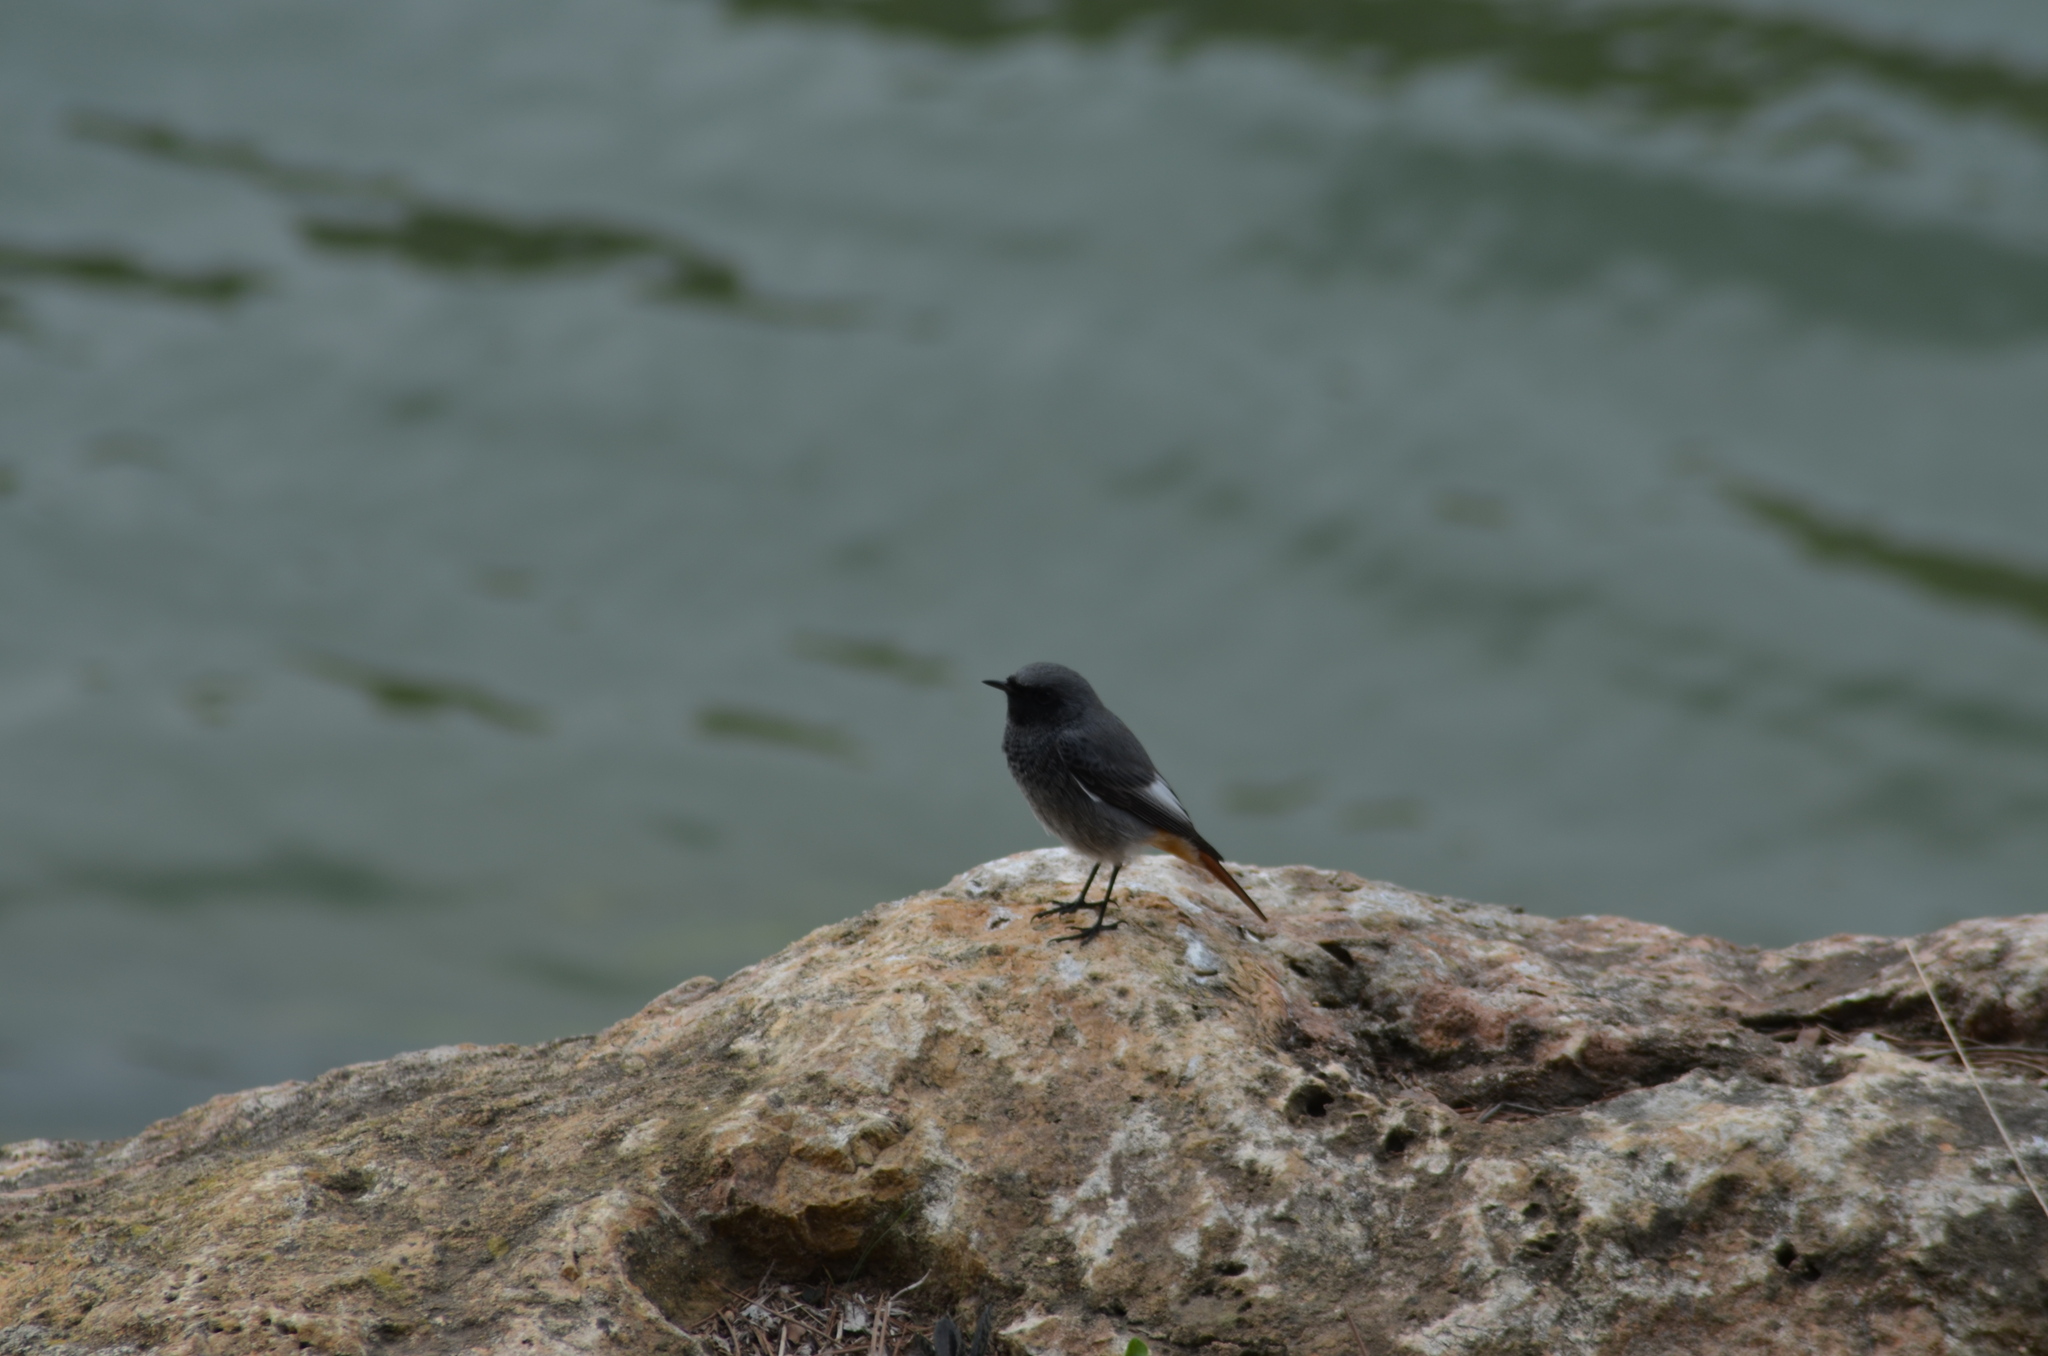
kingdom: Animalia
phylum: Chordata
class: Aves
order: Passeriformes
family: Muscicapidae
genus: Phoenicurus
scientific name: Phoenicurus ochruros
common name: Black redstart
